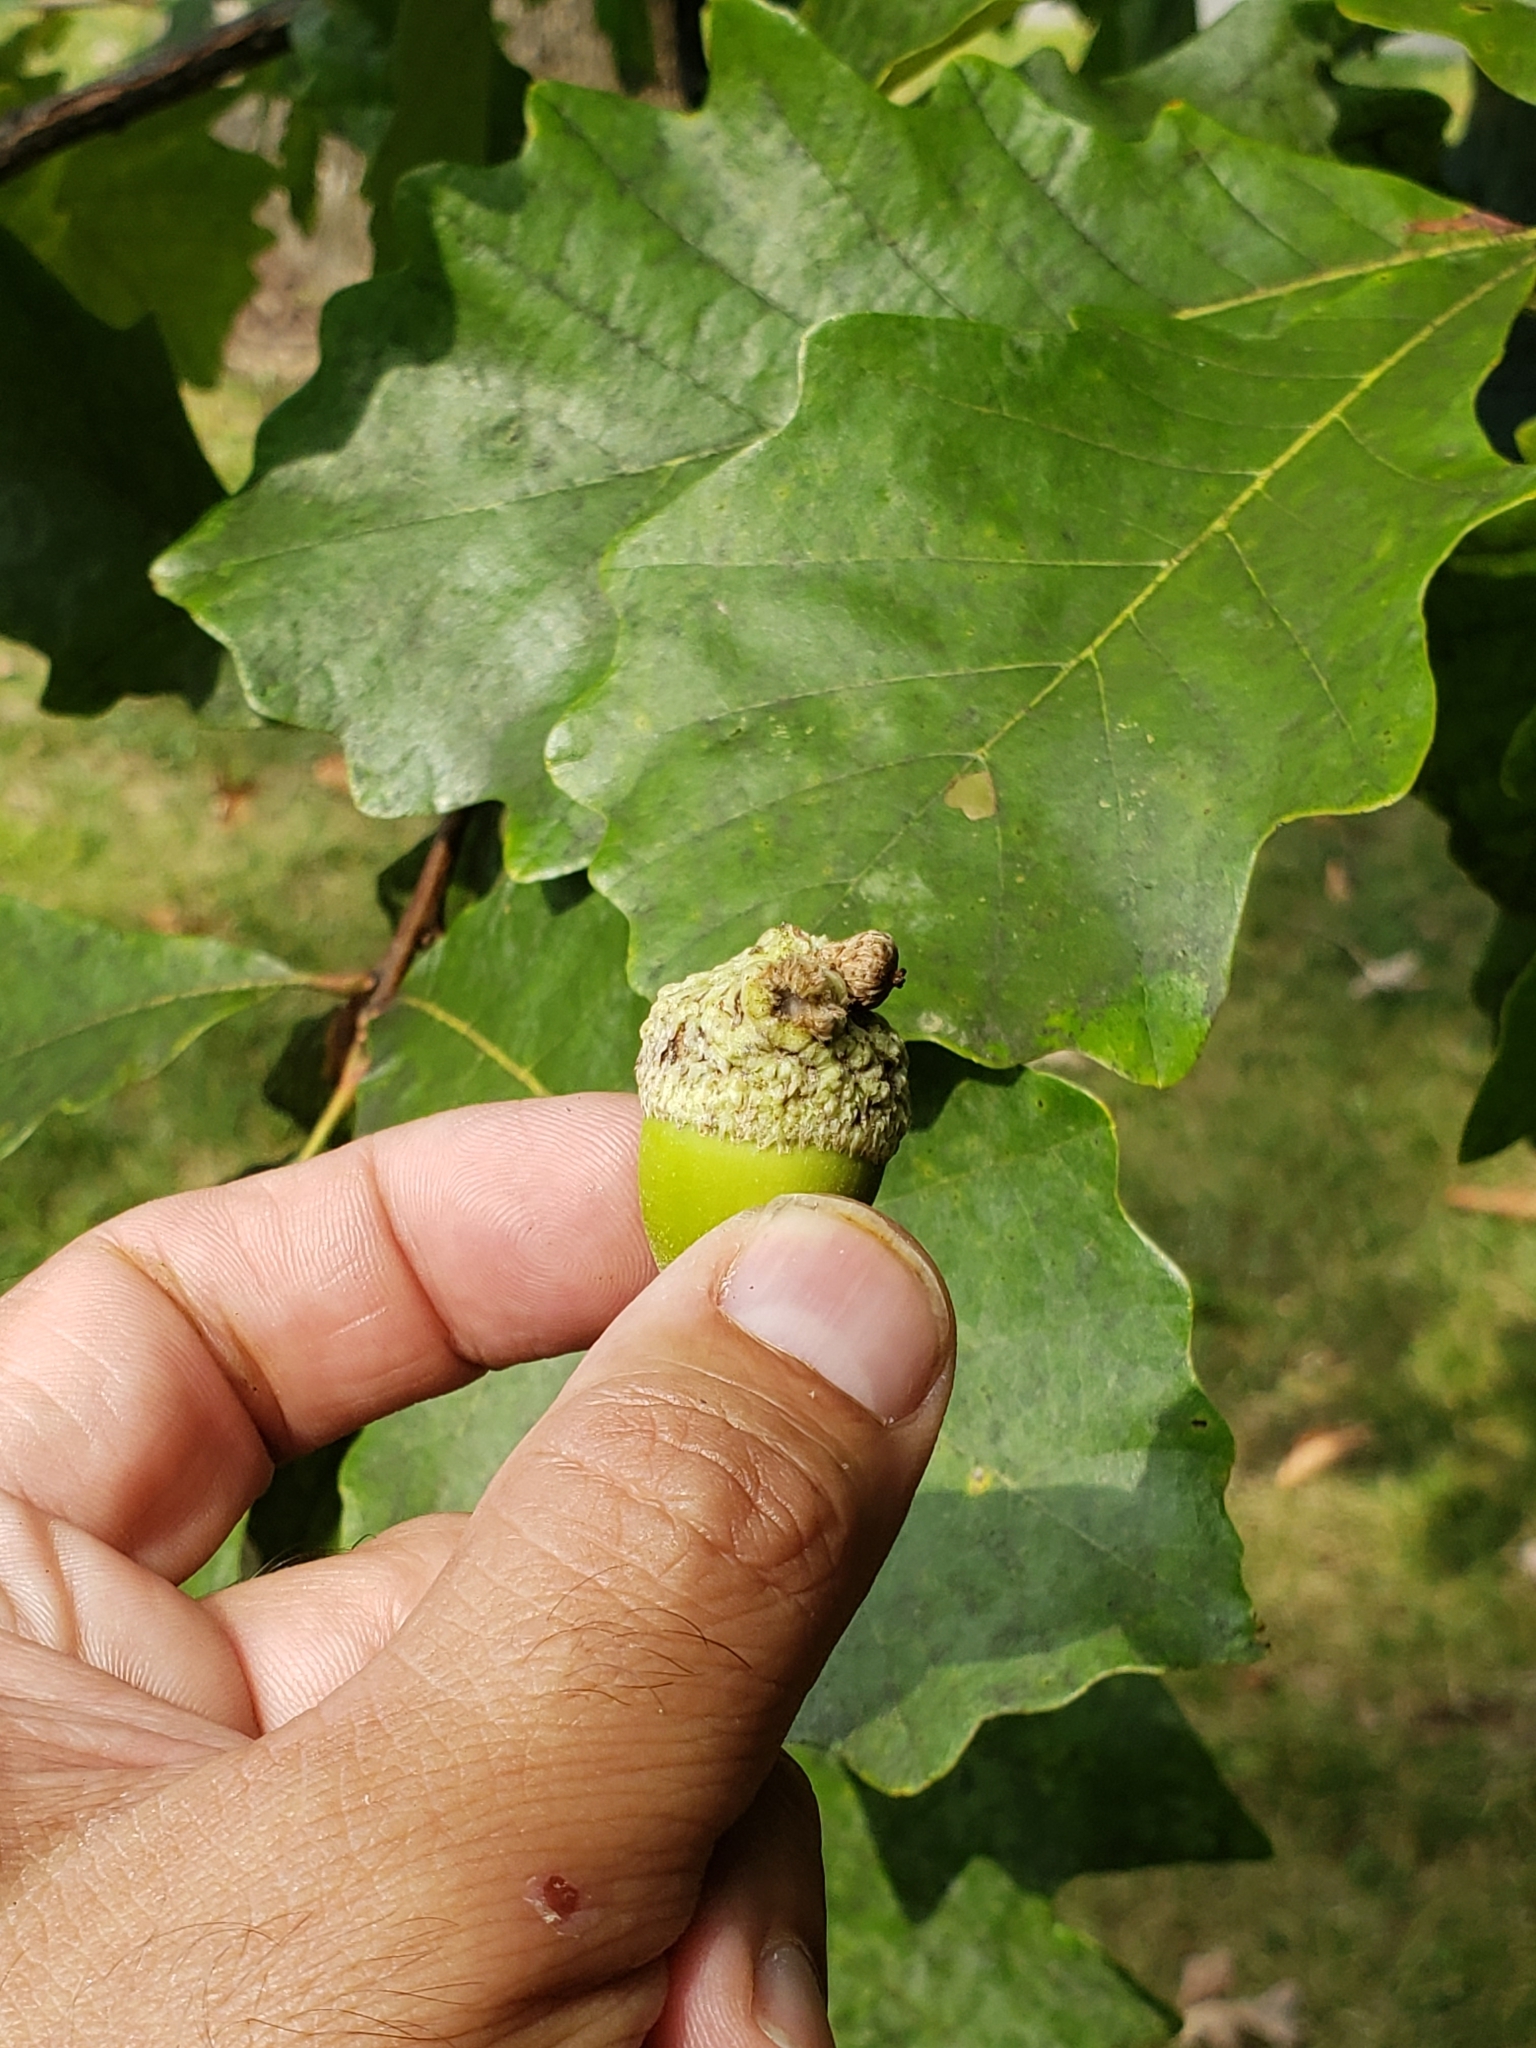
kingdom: Animalia
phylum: Arthropoda
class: Insecta
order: Hymenoptera
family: Cynipidae
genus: Andricus
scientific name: Andricus
